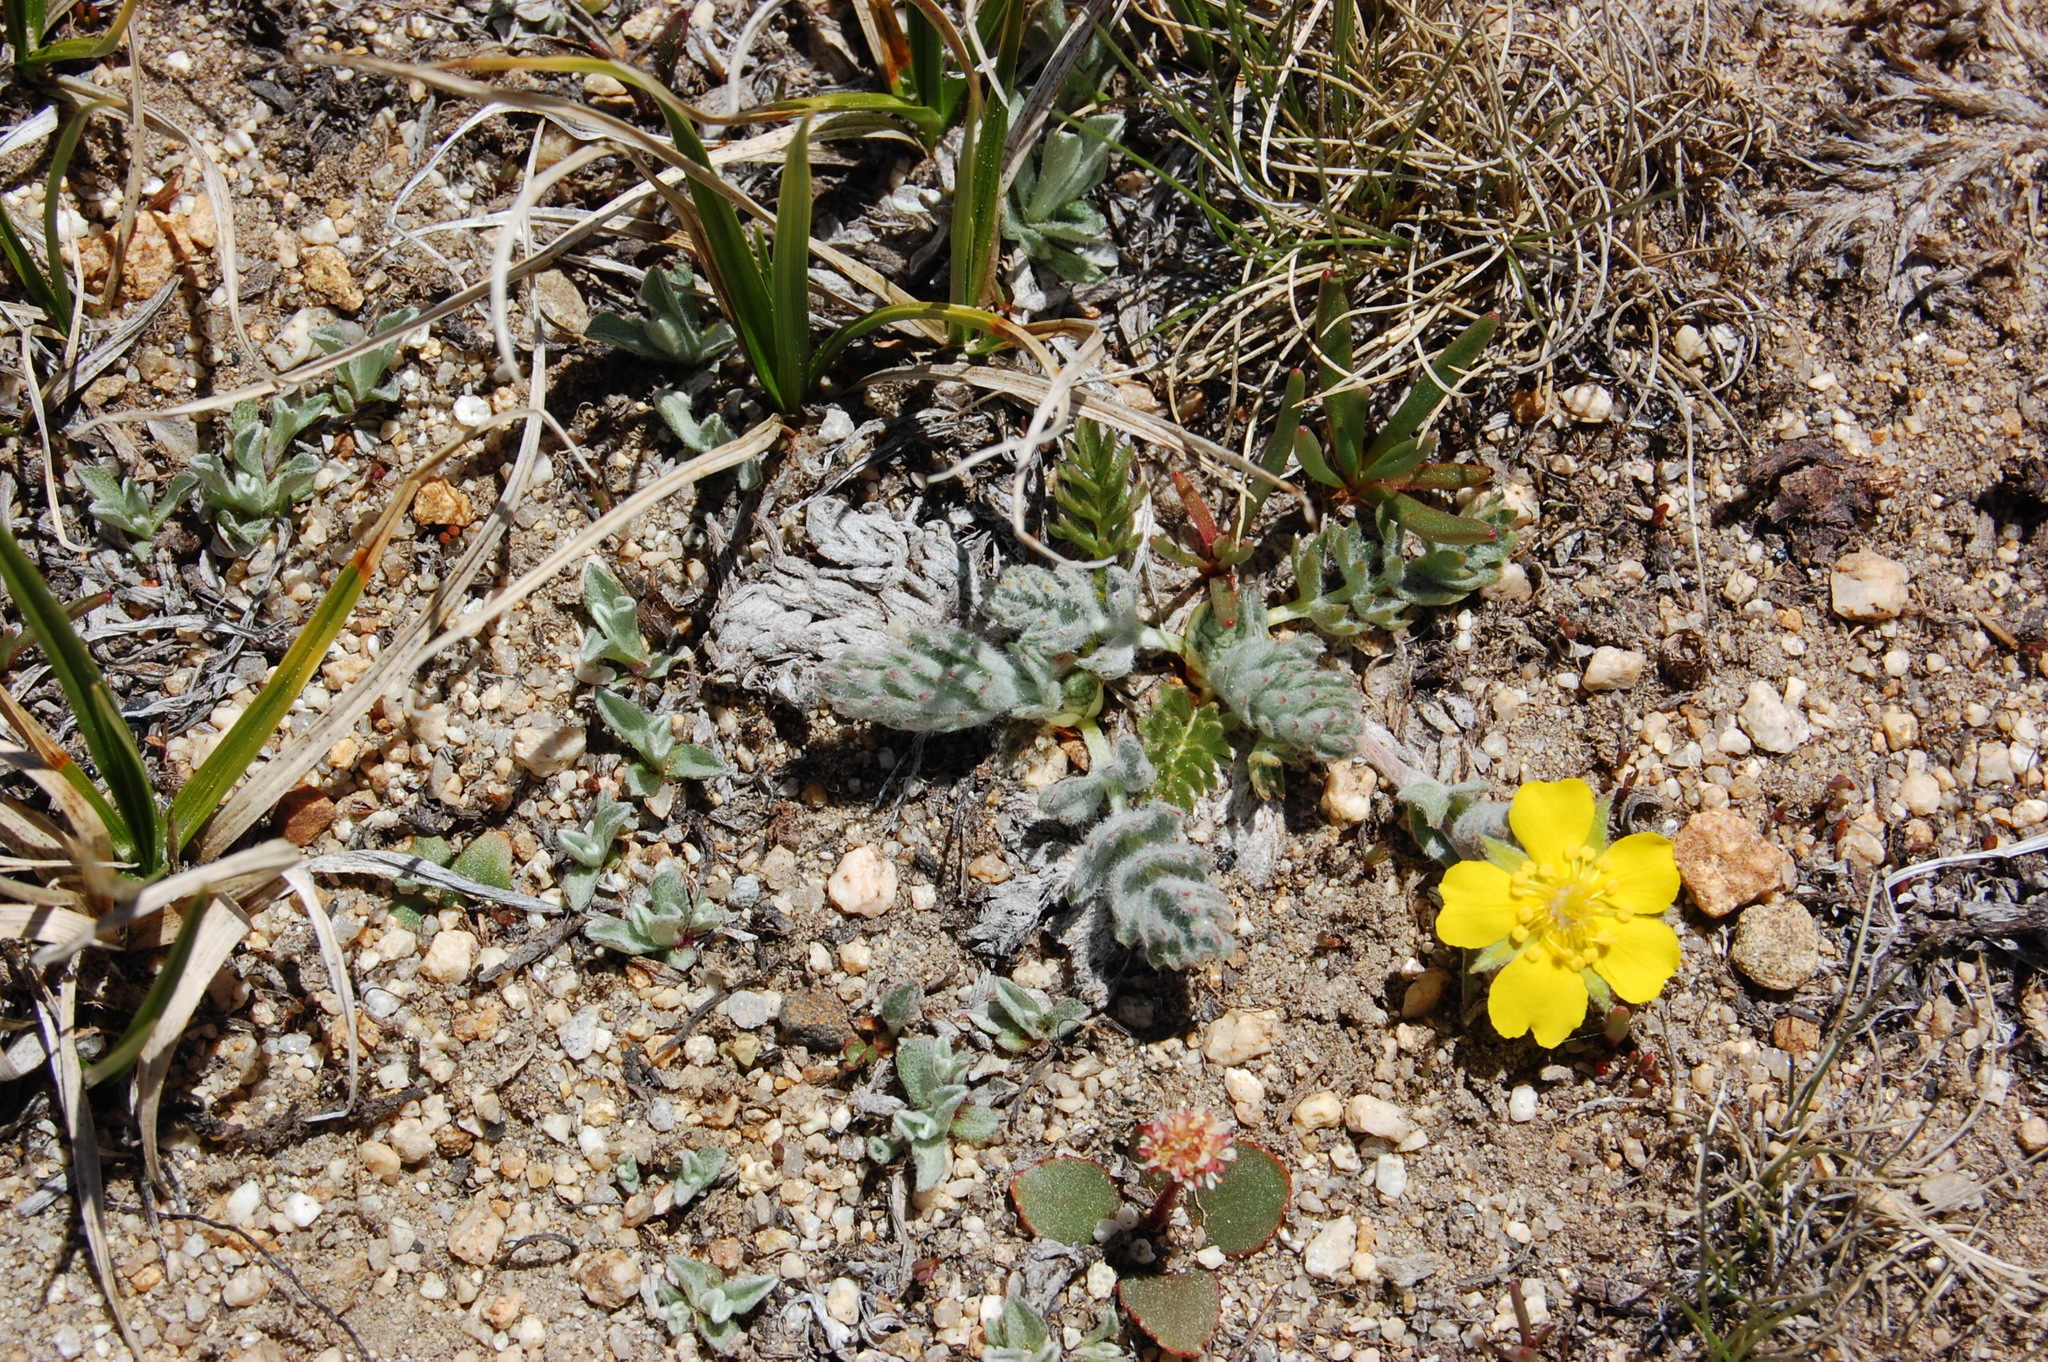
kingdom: Plantae
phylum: Tracheophyta
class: Magnoliopsida
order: Rosales
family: Rosaceae
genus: Potentilla
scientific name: Potentilla breweri
